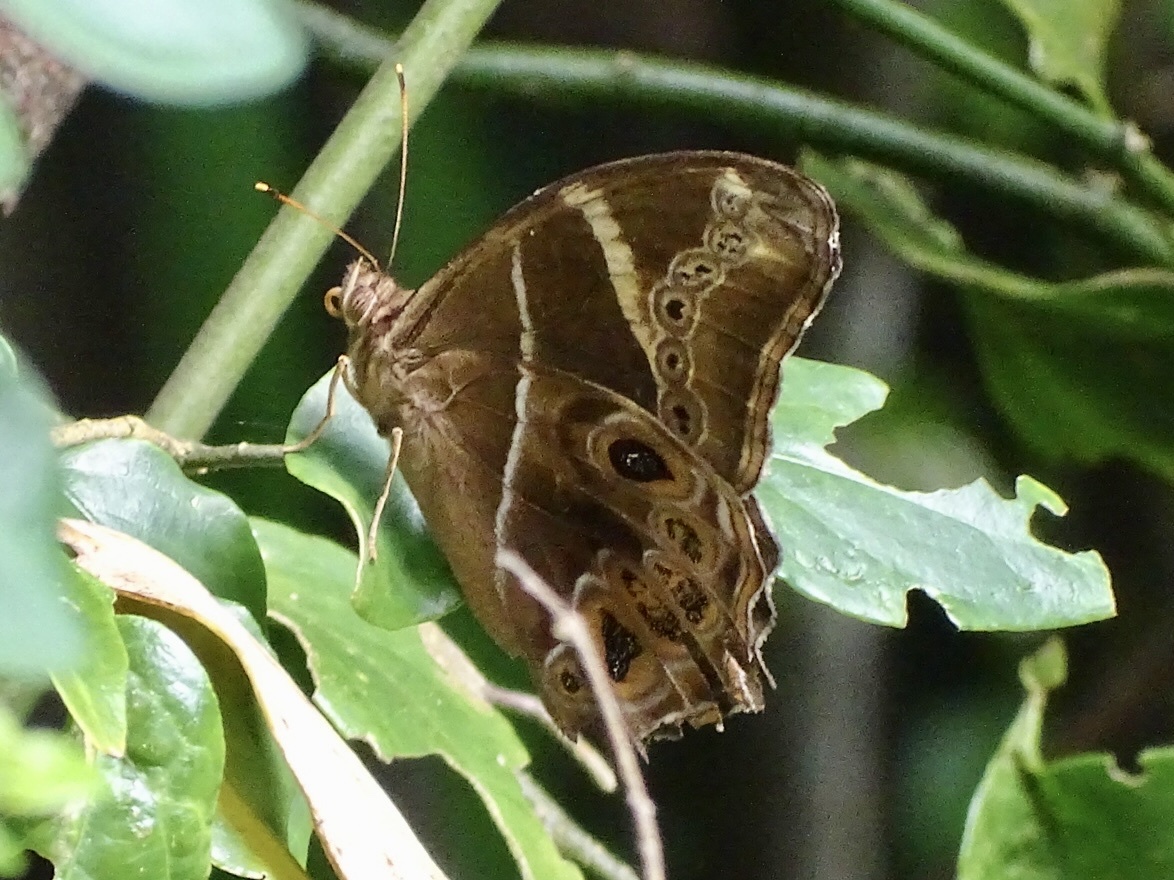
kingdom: Animalia
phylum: Arthropoda
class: Insecta
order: Lepidoptera
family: Nymphalidae
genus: Lethe
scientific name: Lethe europa
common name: Bamboo treebrown
